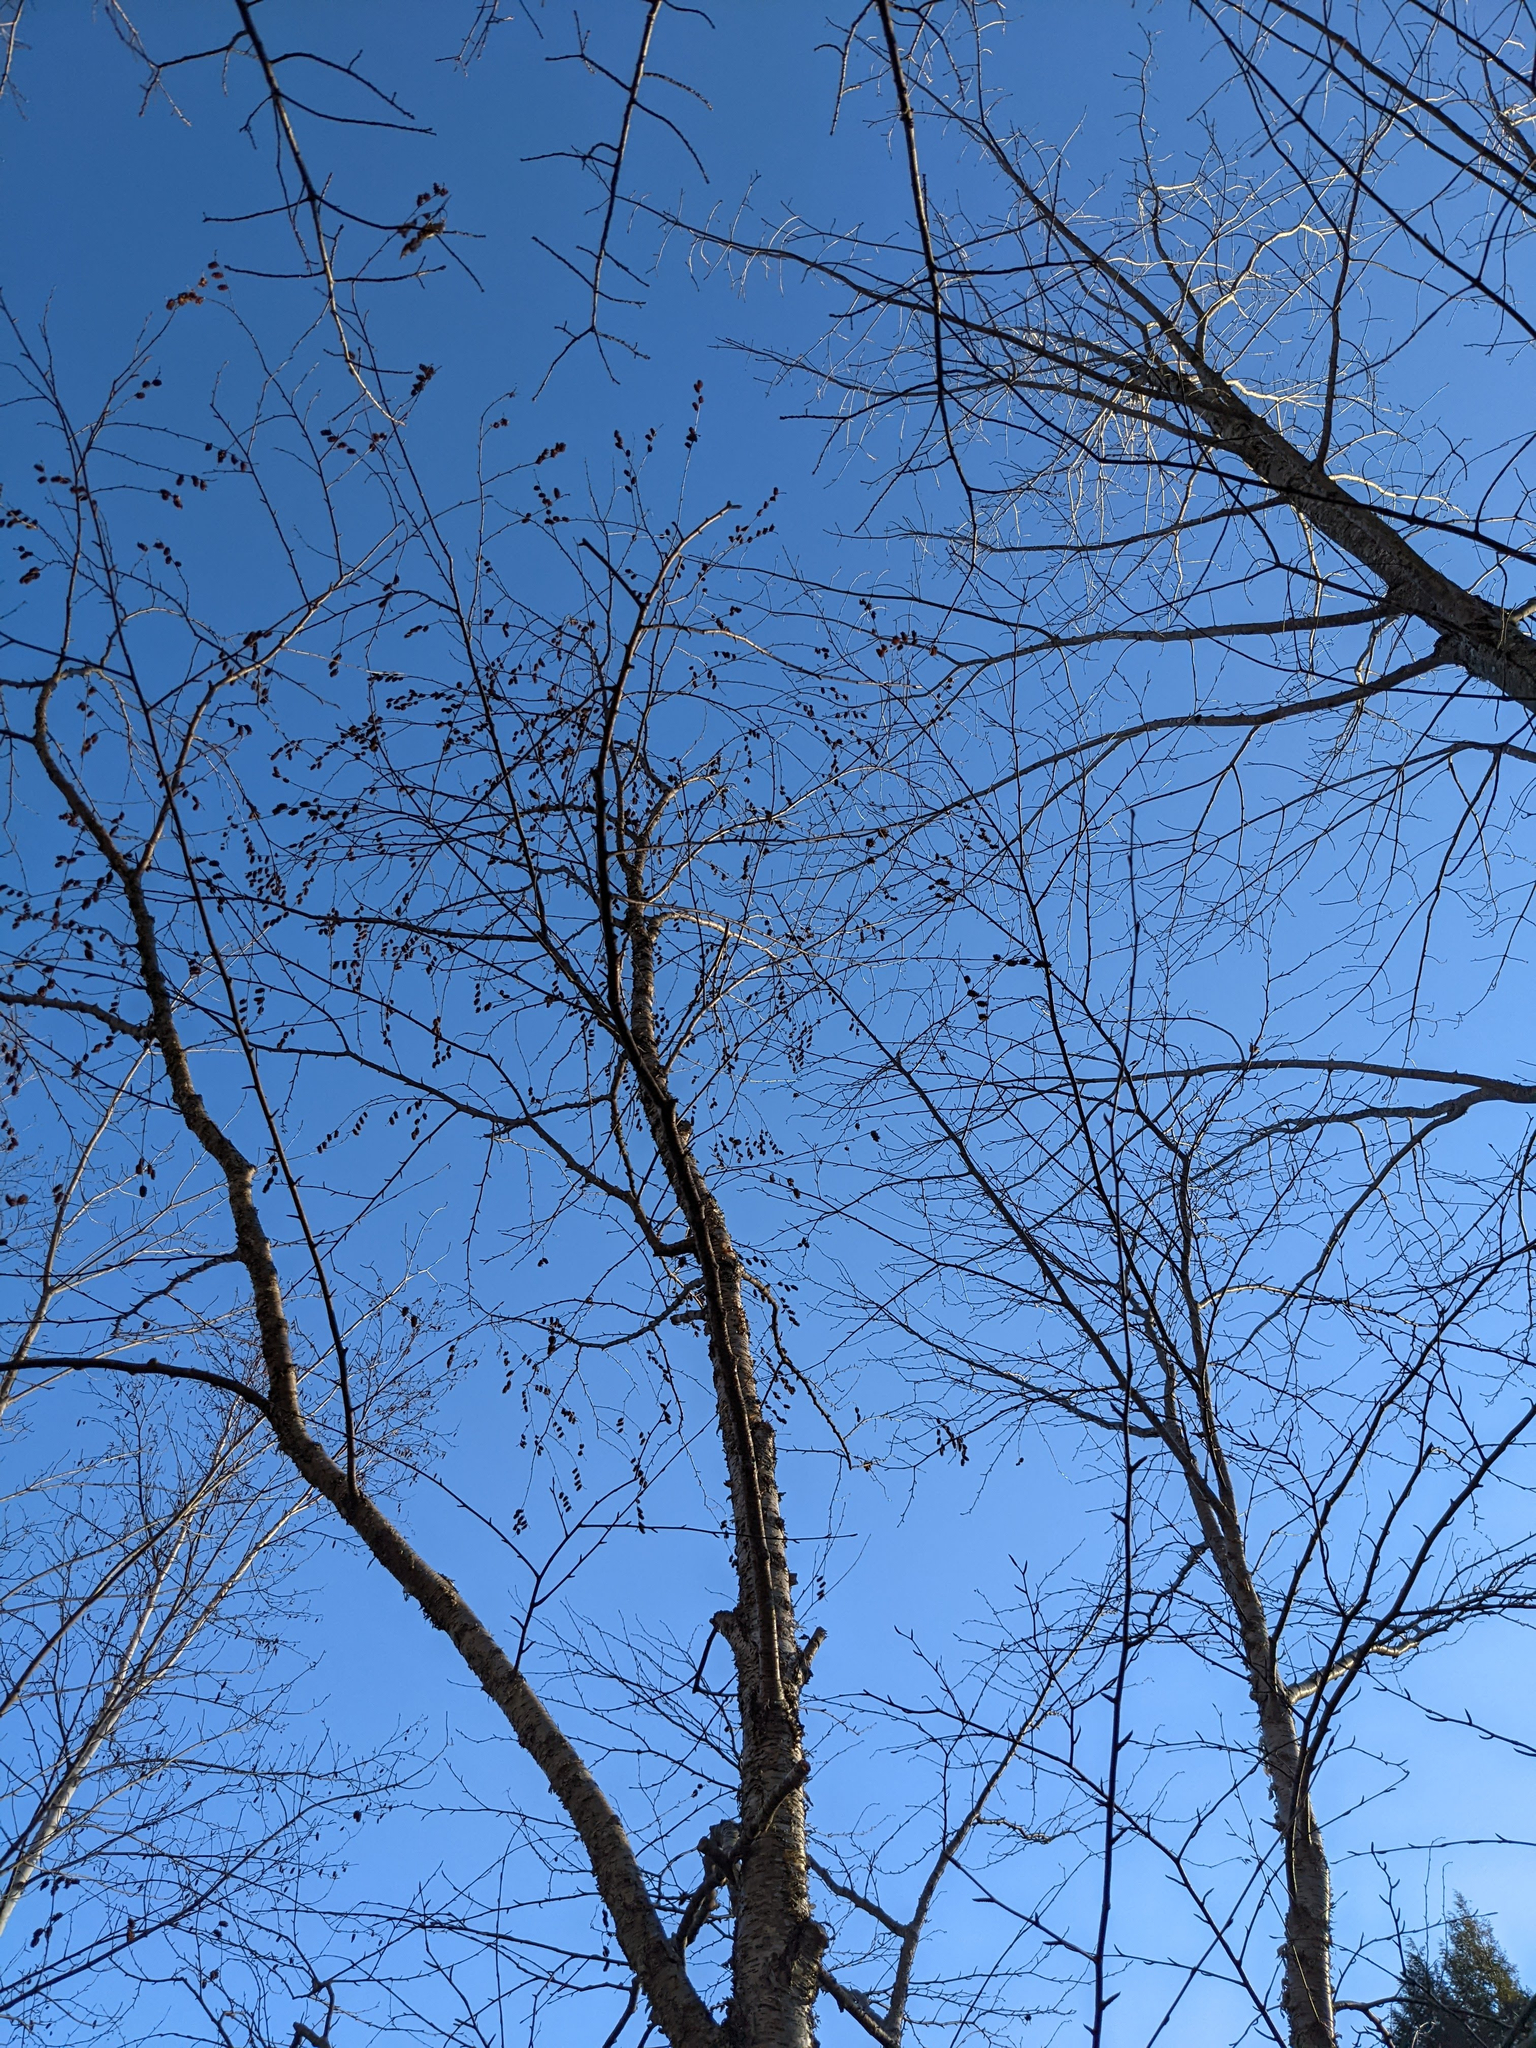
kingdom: Plantae
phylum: Tracheophyta
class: Magnoliopsida
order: Fagales
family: Betulaceae
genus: Betula
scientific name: Betula alleghaniensis
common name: Yellow birch
